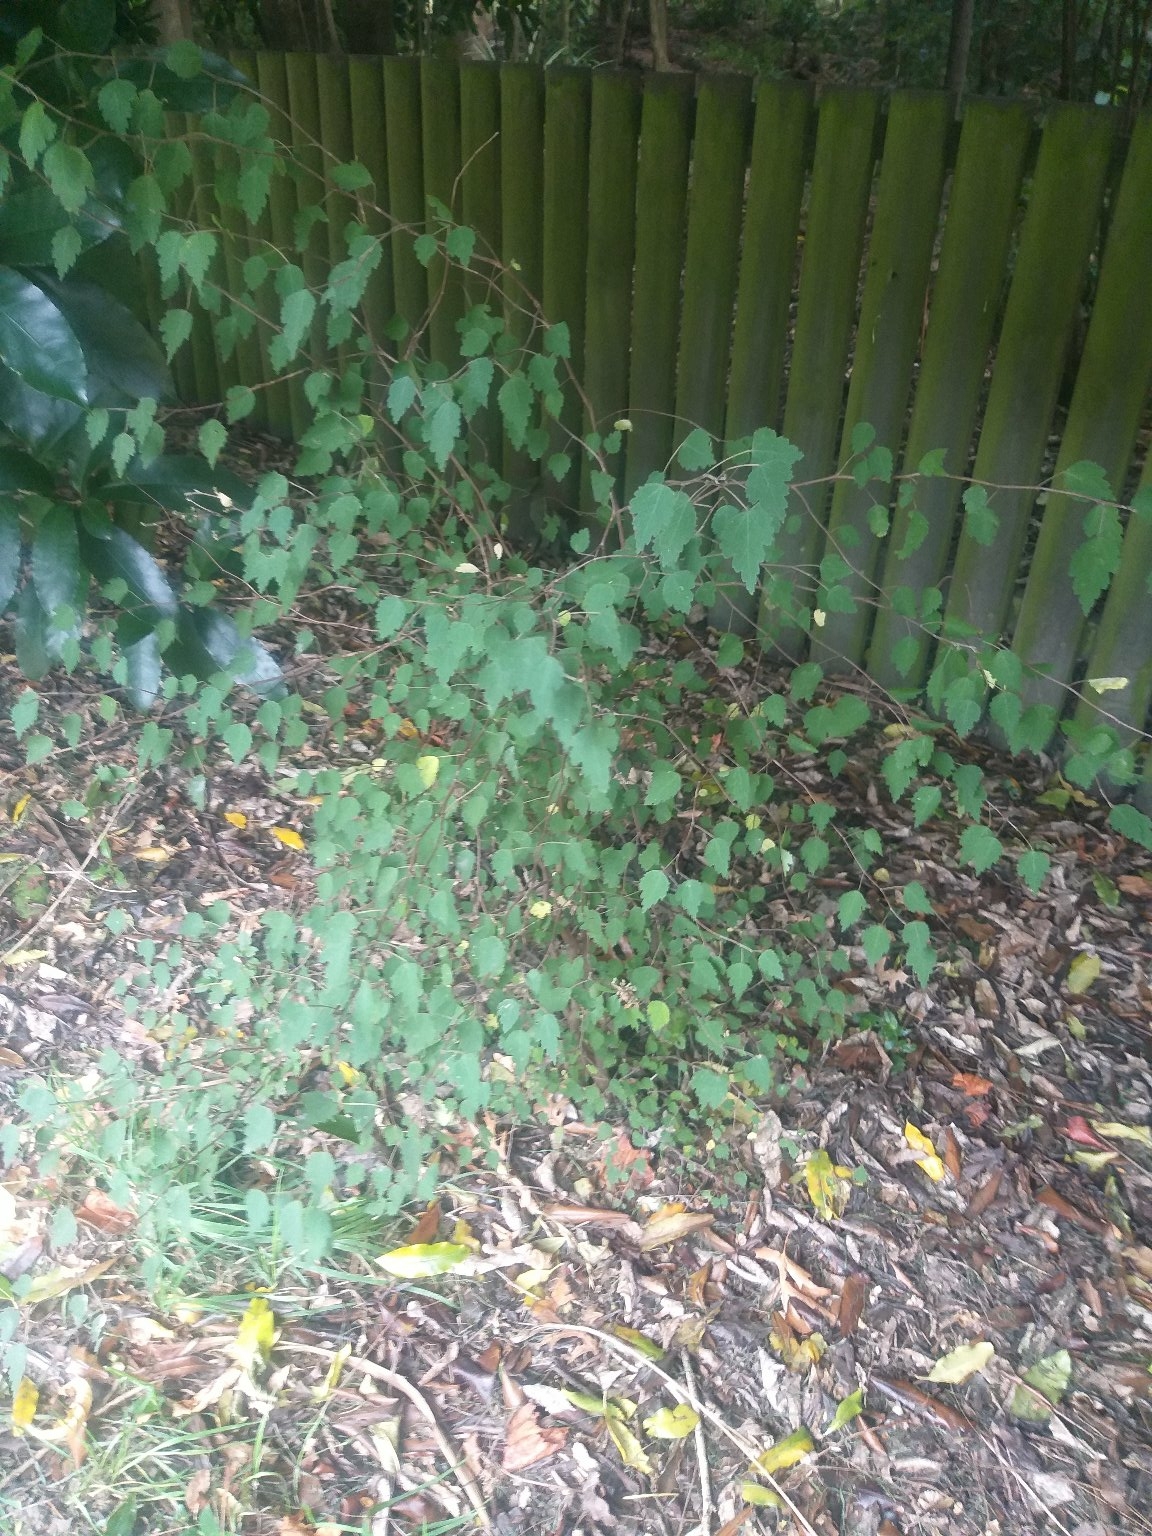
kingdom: Plantae
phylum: Tracheophyta
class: Magnoliopsida
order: Malvales
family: Malvaceae
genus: Plagianthus
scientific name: Plagianthus regius
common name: Manatu
